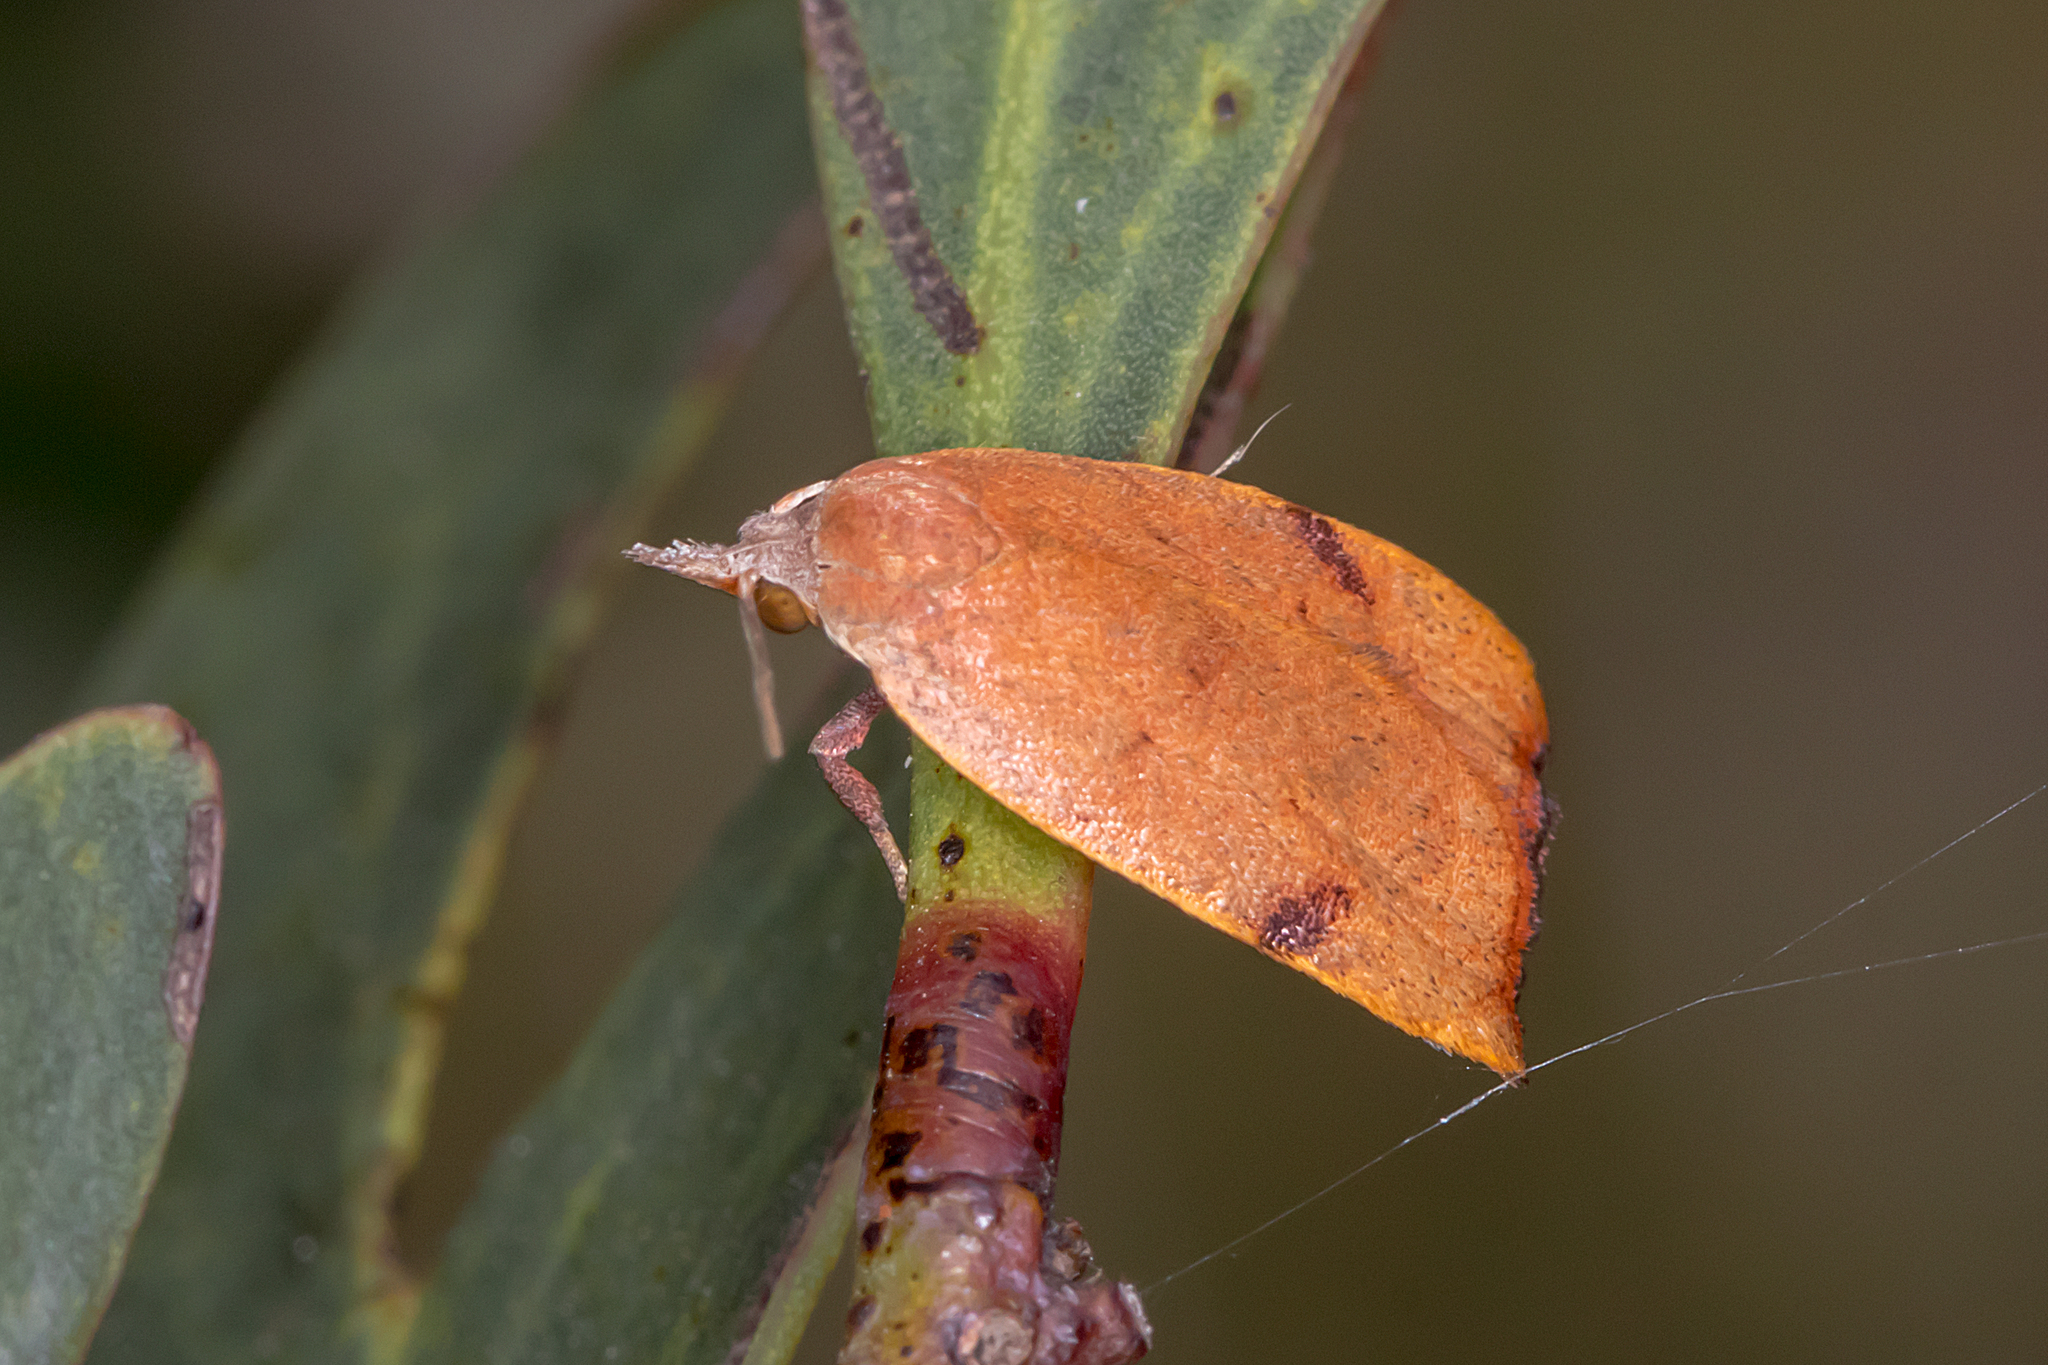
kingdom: Animalia
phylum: Arthropoda
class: Insecta
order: Lepidoptera
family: Oecophoridae
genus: Tortricopsis
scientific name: Tortricopsis uncinella
